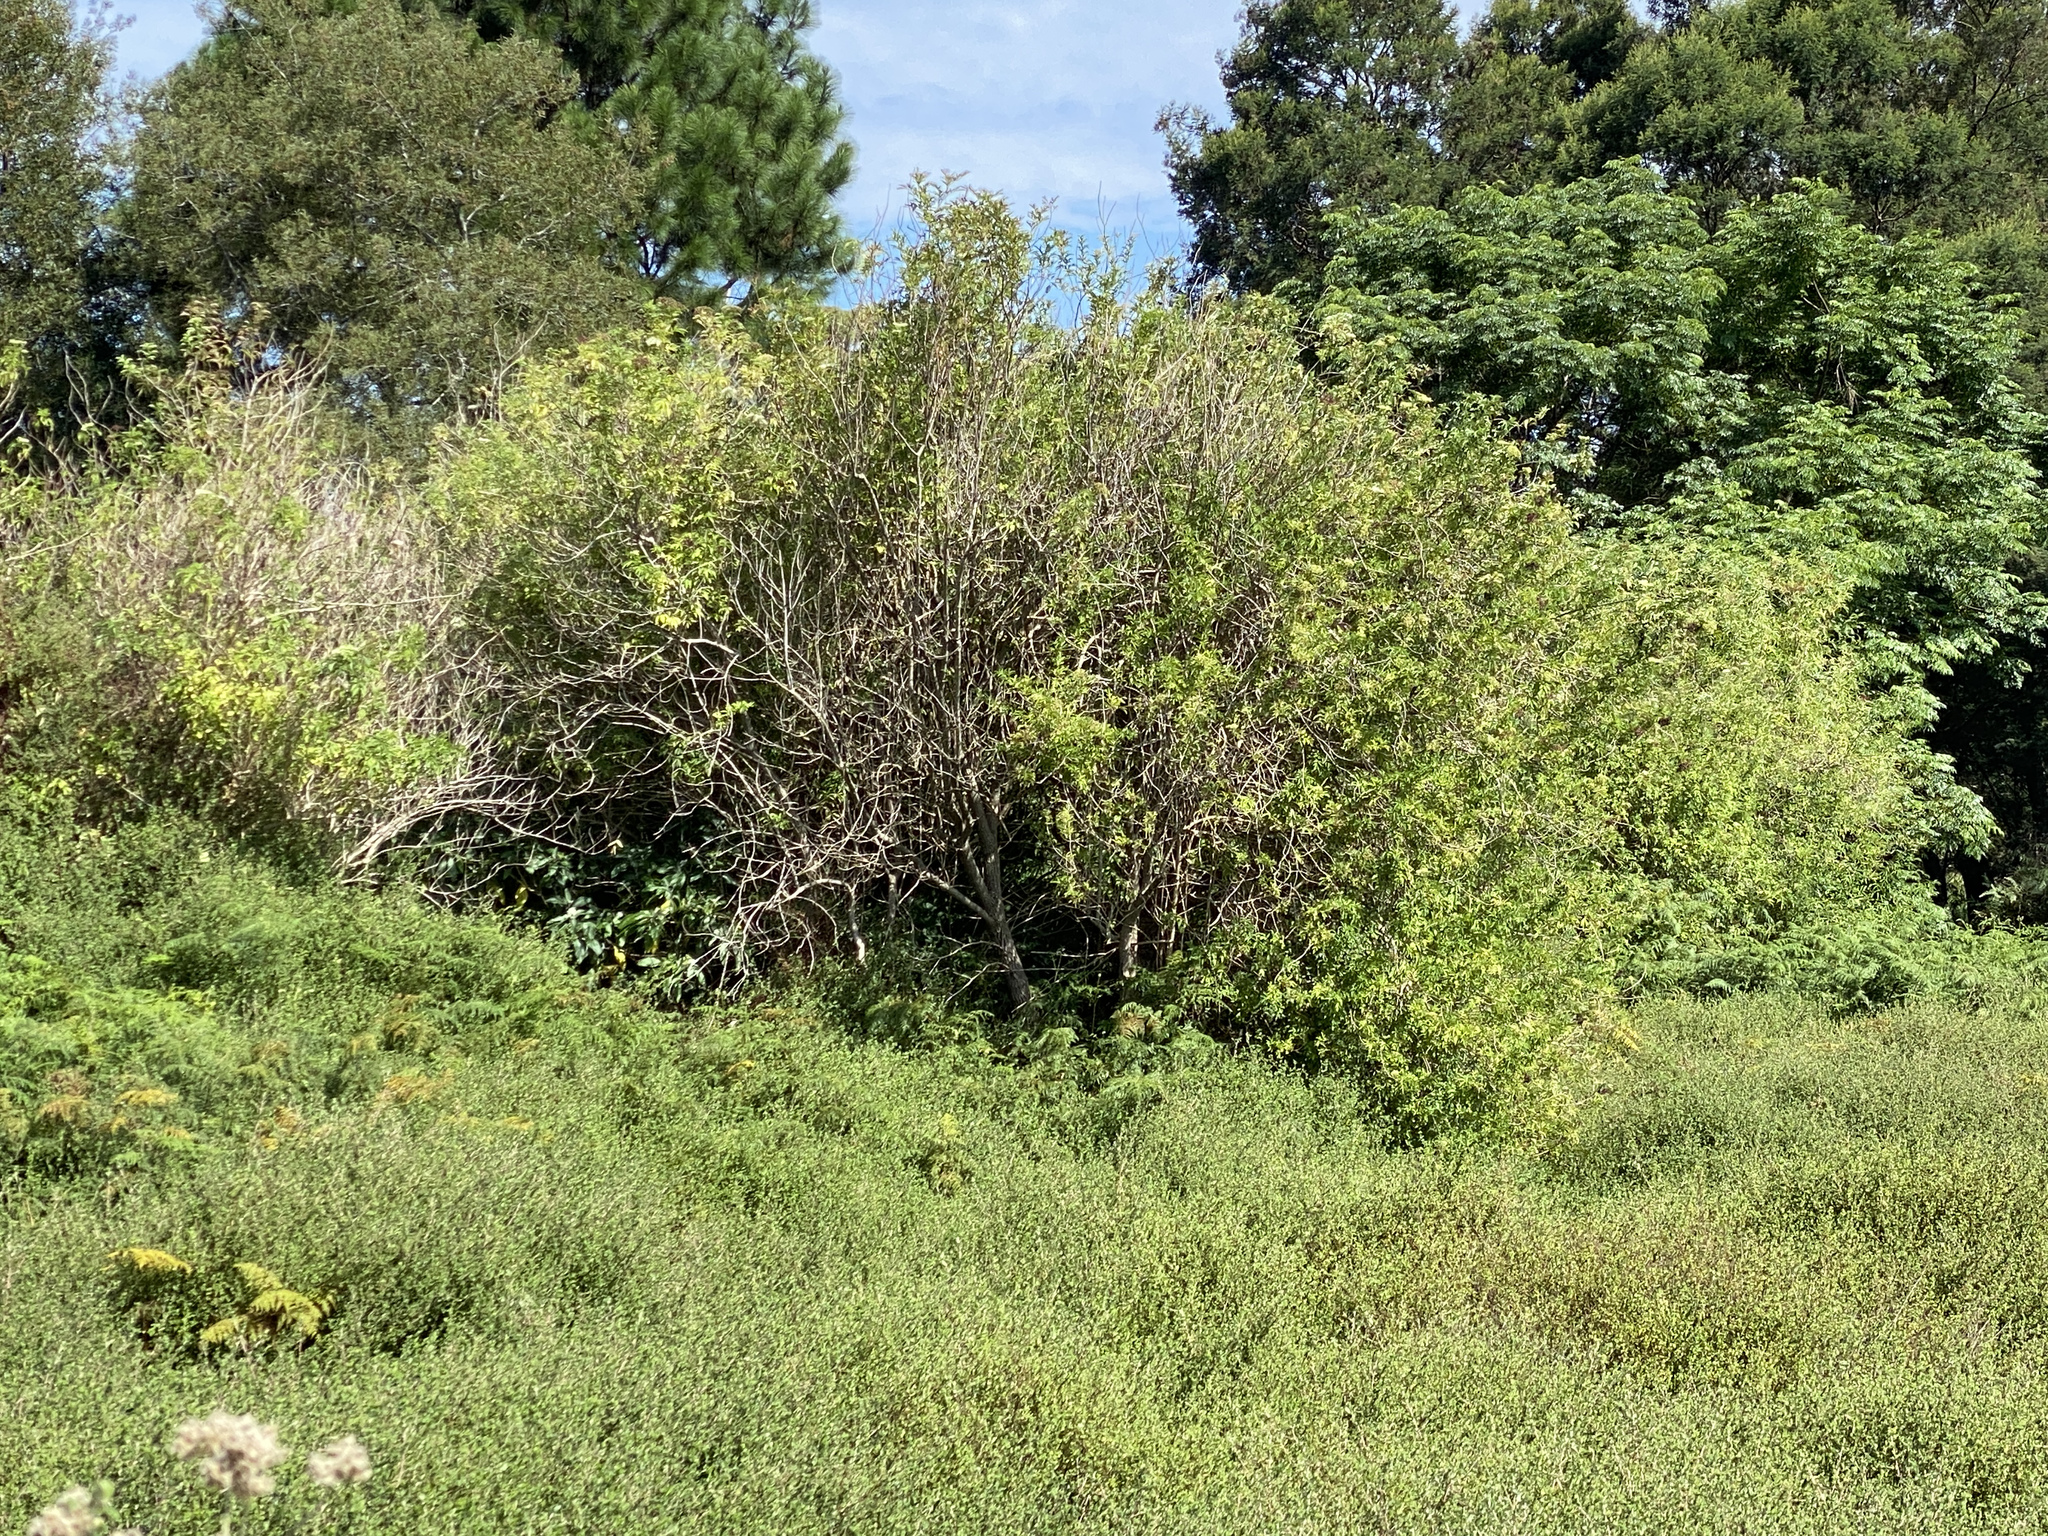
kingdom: Plantae
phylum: Tracheophyta
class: Magnoliopsida
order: Dipsacales
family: Viburnaceae
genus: Sambucus
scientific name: Sambucus nigra
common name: Elder
